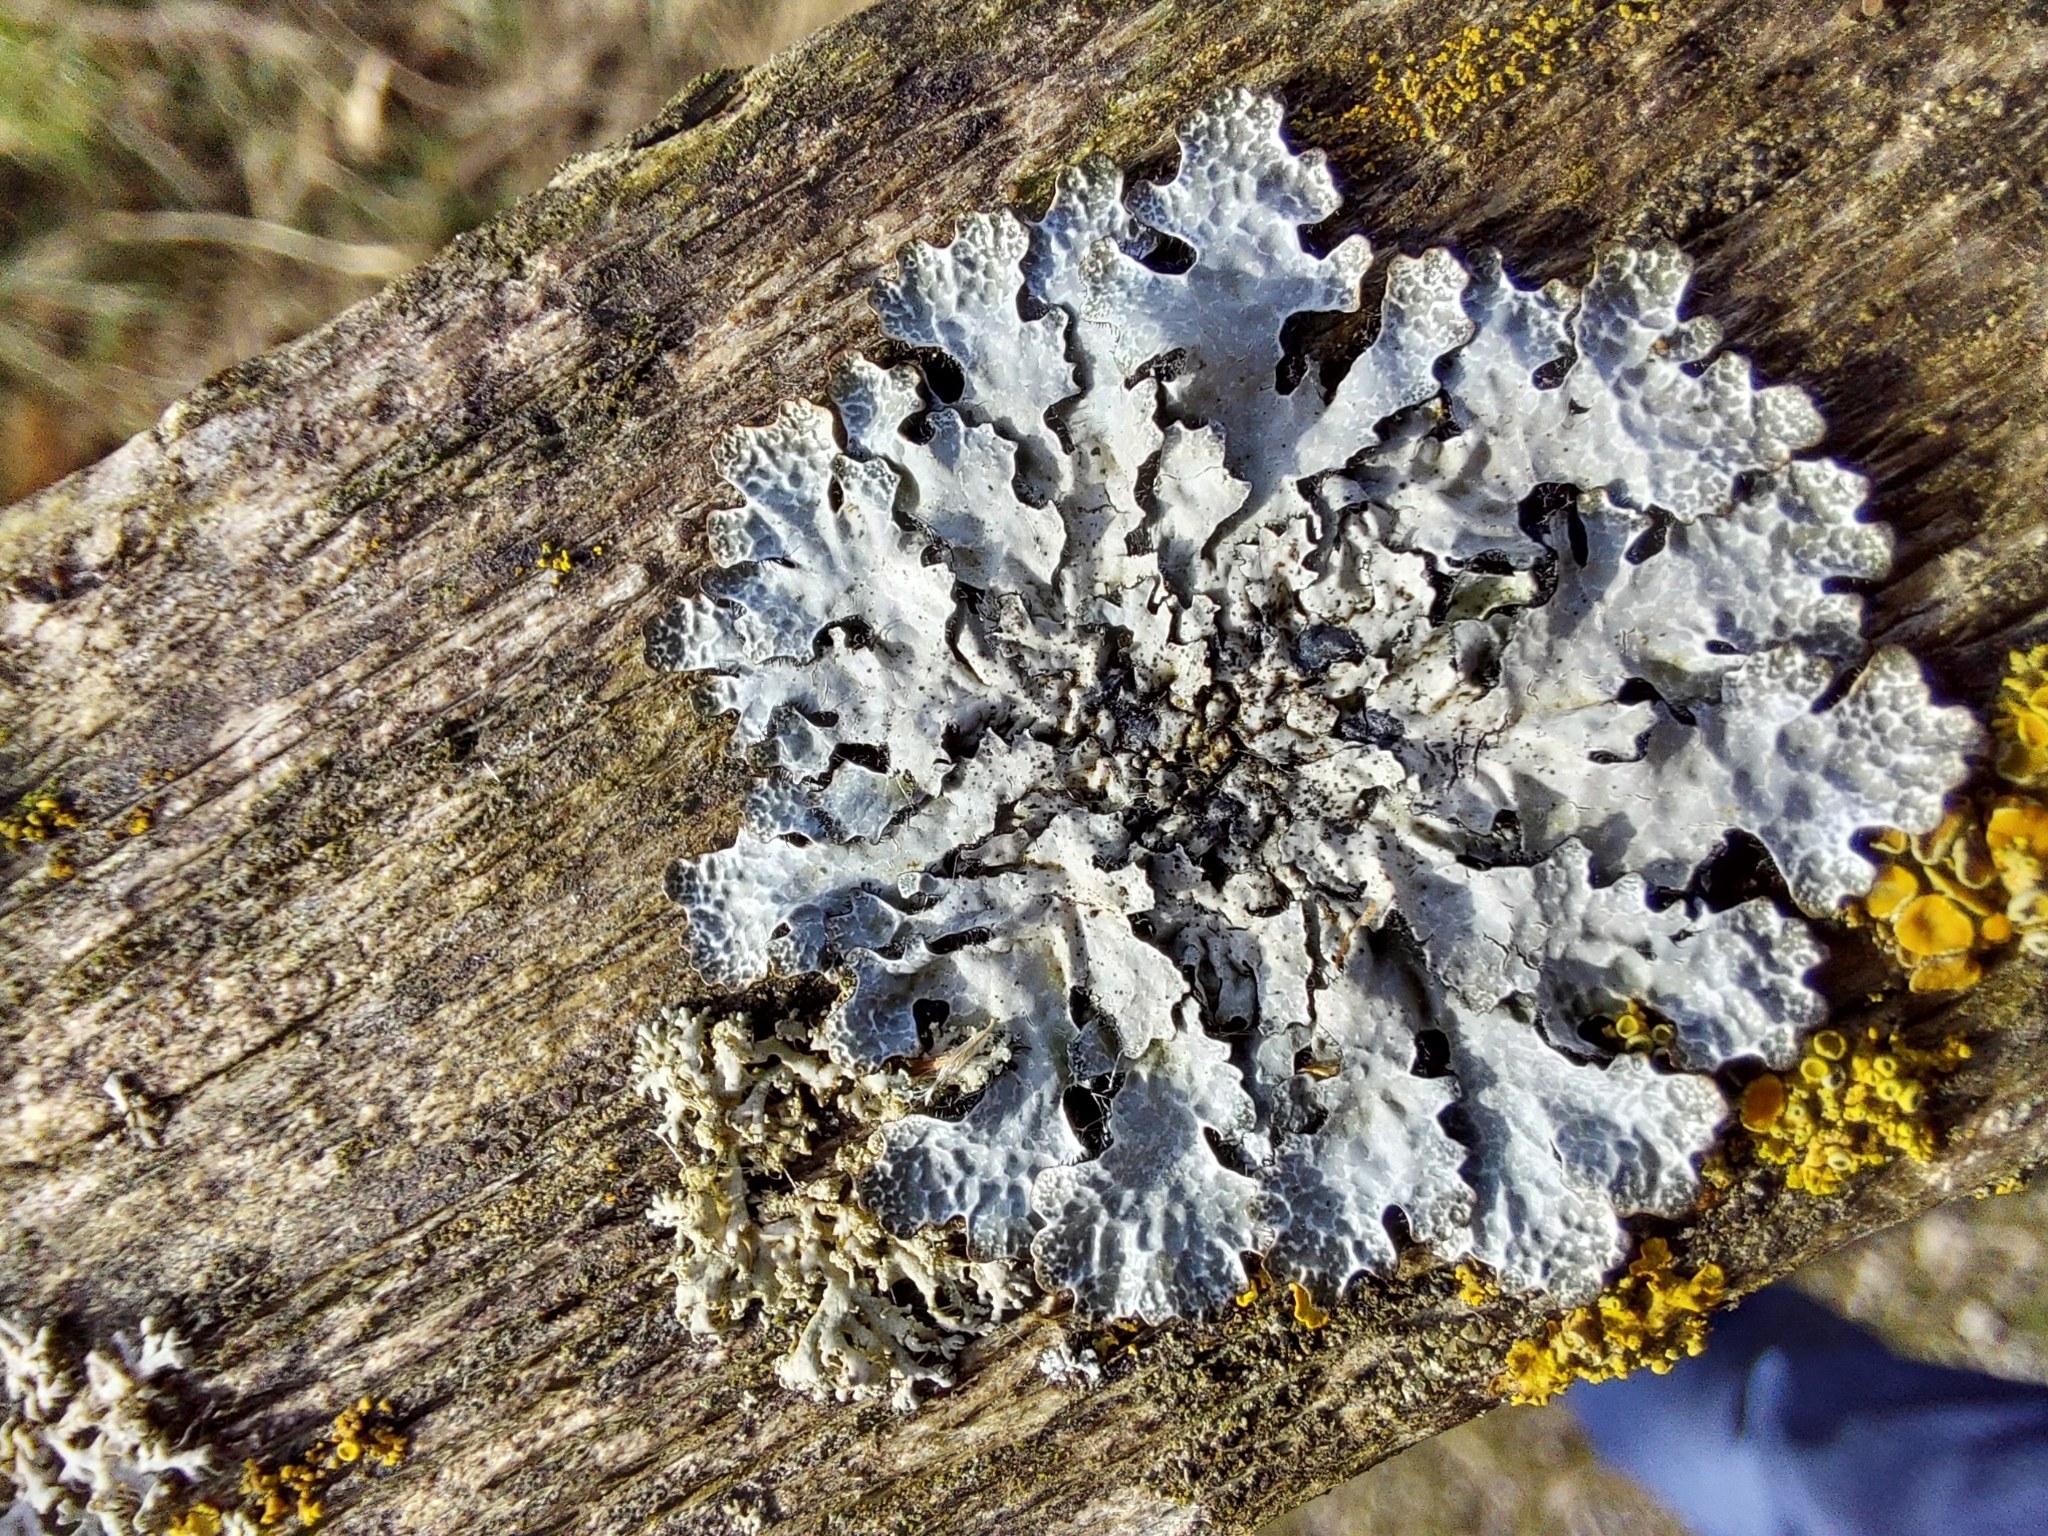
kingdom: Fungi
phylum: Ascomycota
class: Lecanoromycetes
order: Lecanorales
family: Parmeliaceae
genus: Parmelia
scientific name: Parmelia sulcata
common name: Netted shield lichen
